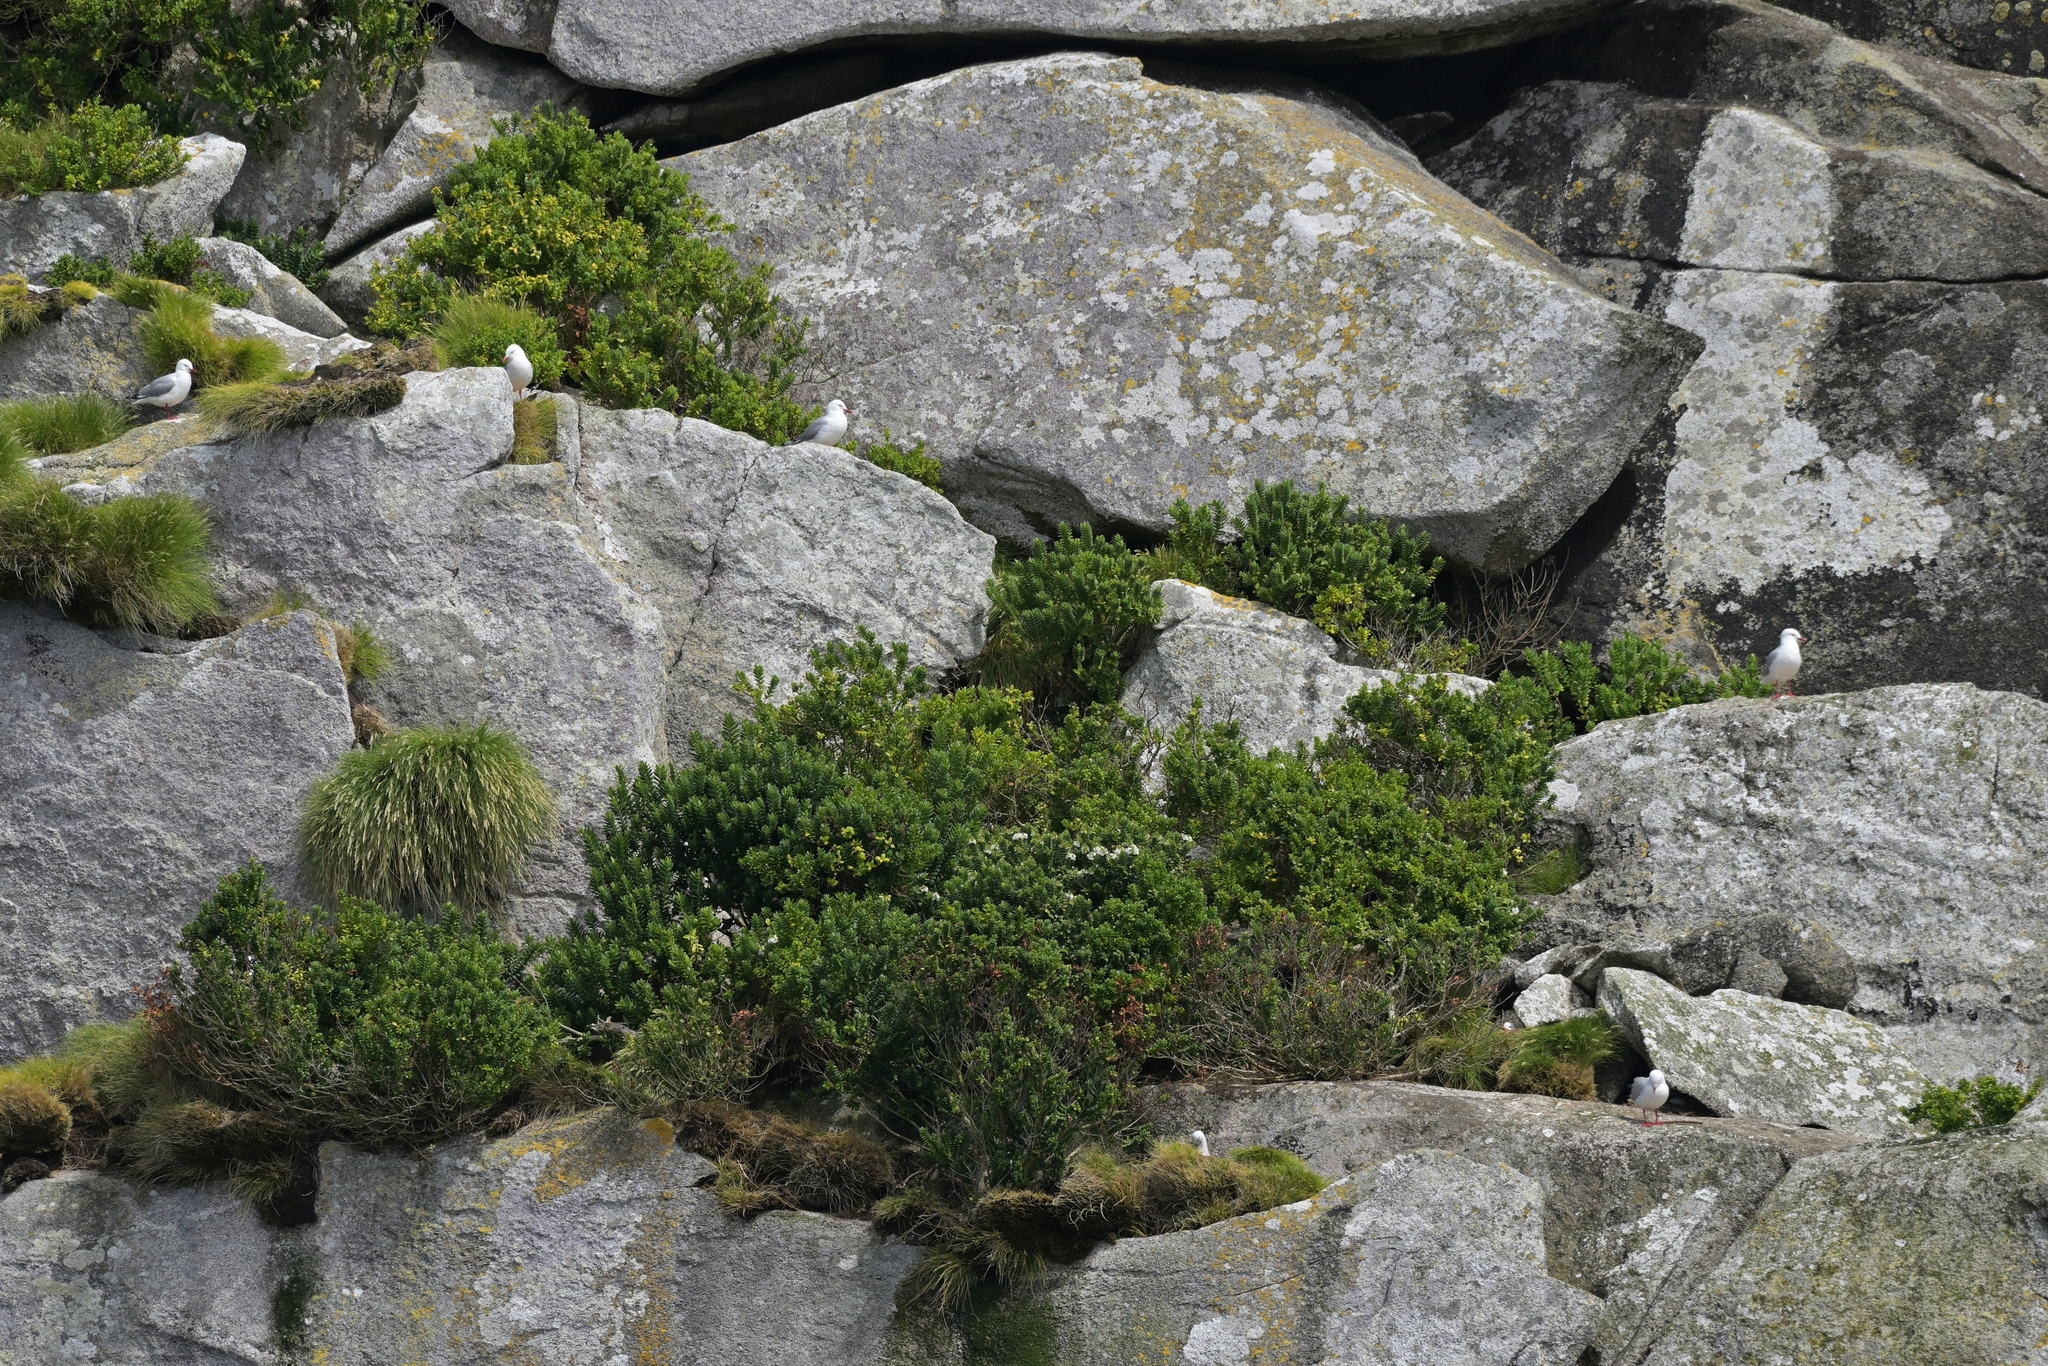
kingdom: Animalia
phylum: Chordata
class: Aves
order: Charadriiformes
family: Laridae
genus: Chroicocephalus
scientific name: Chroicocephalus novaehollandiae
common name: Silver gull
